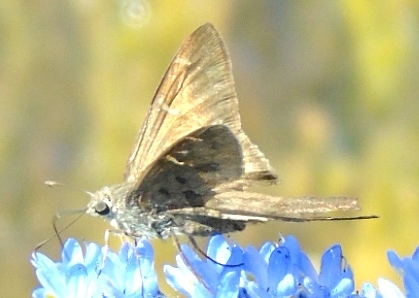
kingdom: Animalia
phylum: Arthropoda
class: Insecta
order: Lepidoptera
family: Hesperiidae
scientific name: Hesperiidae
